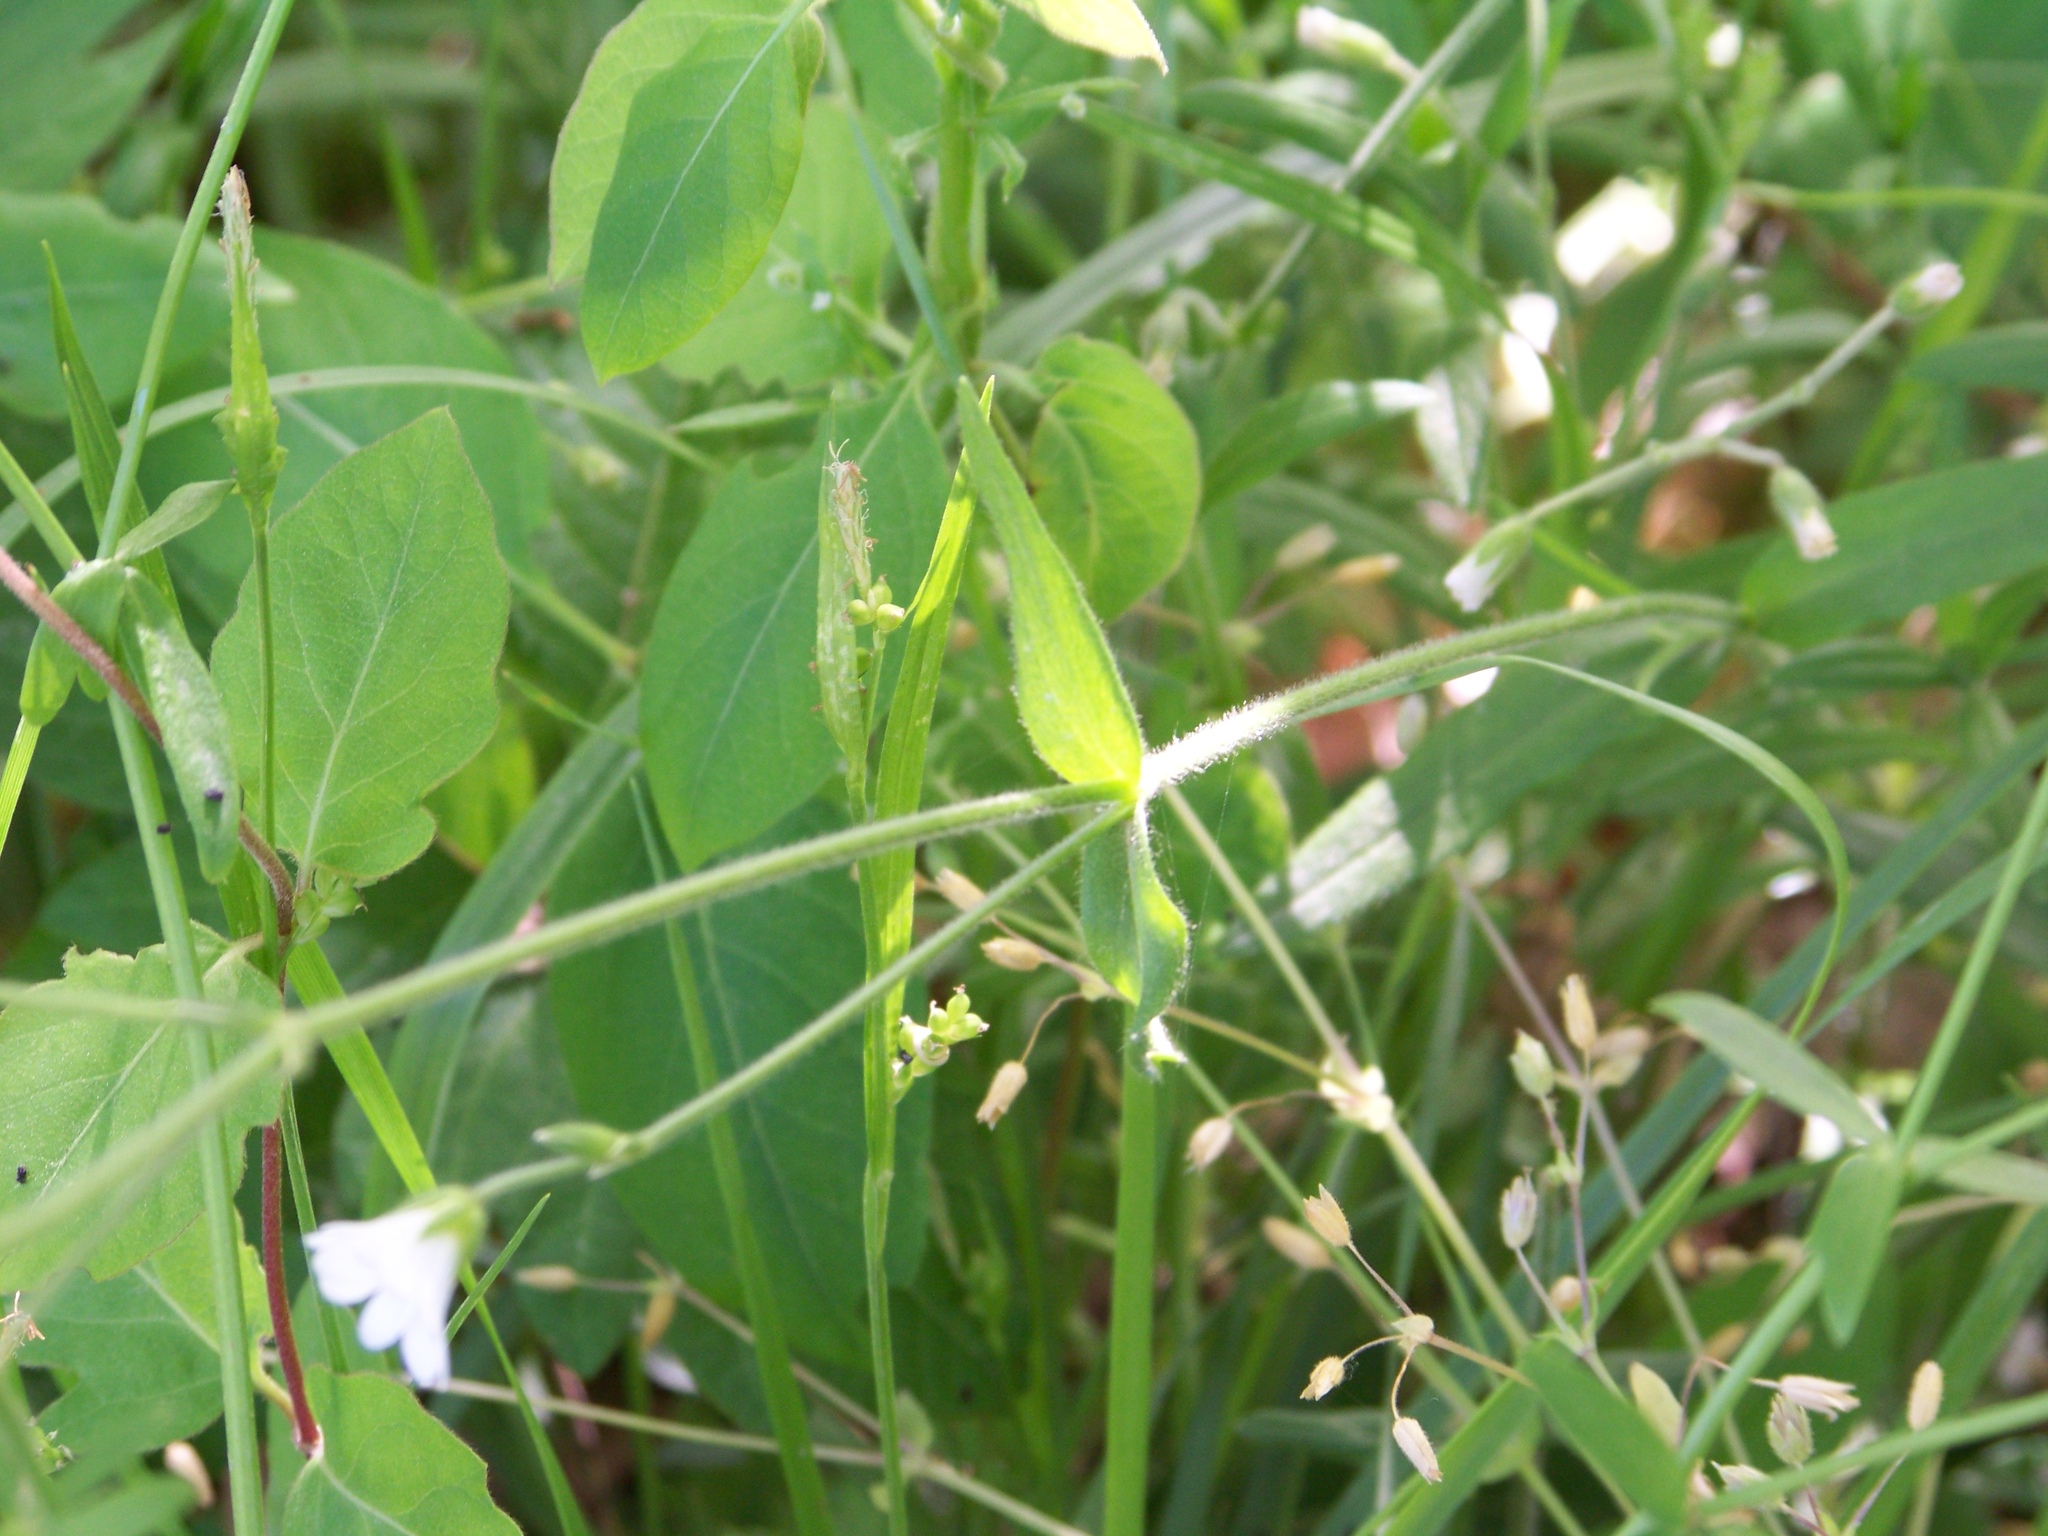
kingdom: Plantae
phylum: Tracheophyta
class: Magnoliopsida
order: Caryophyllales
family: Caryophyllaceae
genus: Cerastium
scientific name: Cerastium arvense
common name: Field mouse-ear
